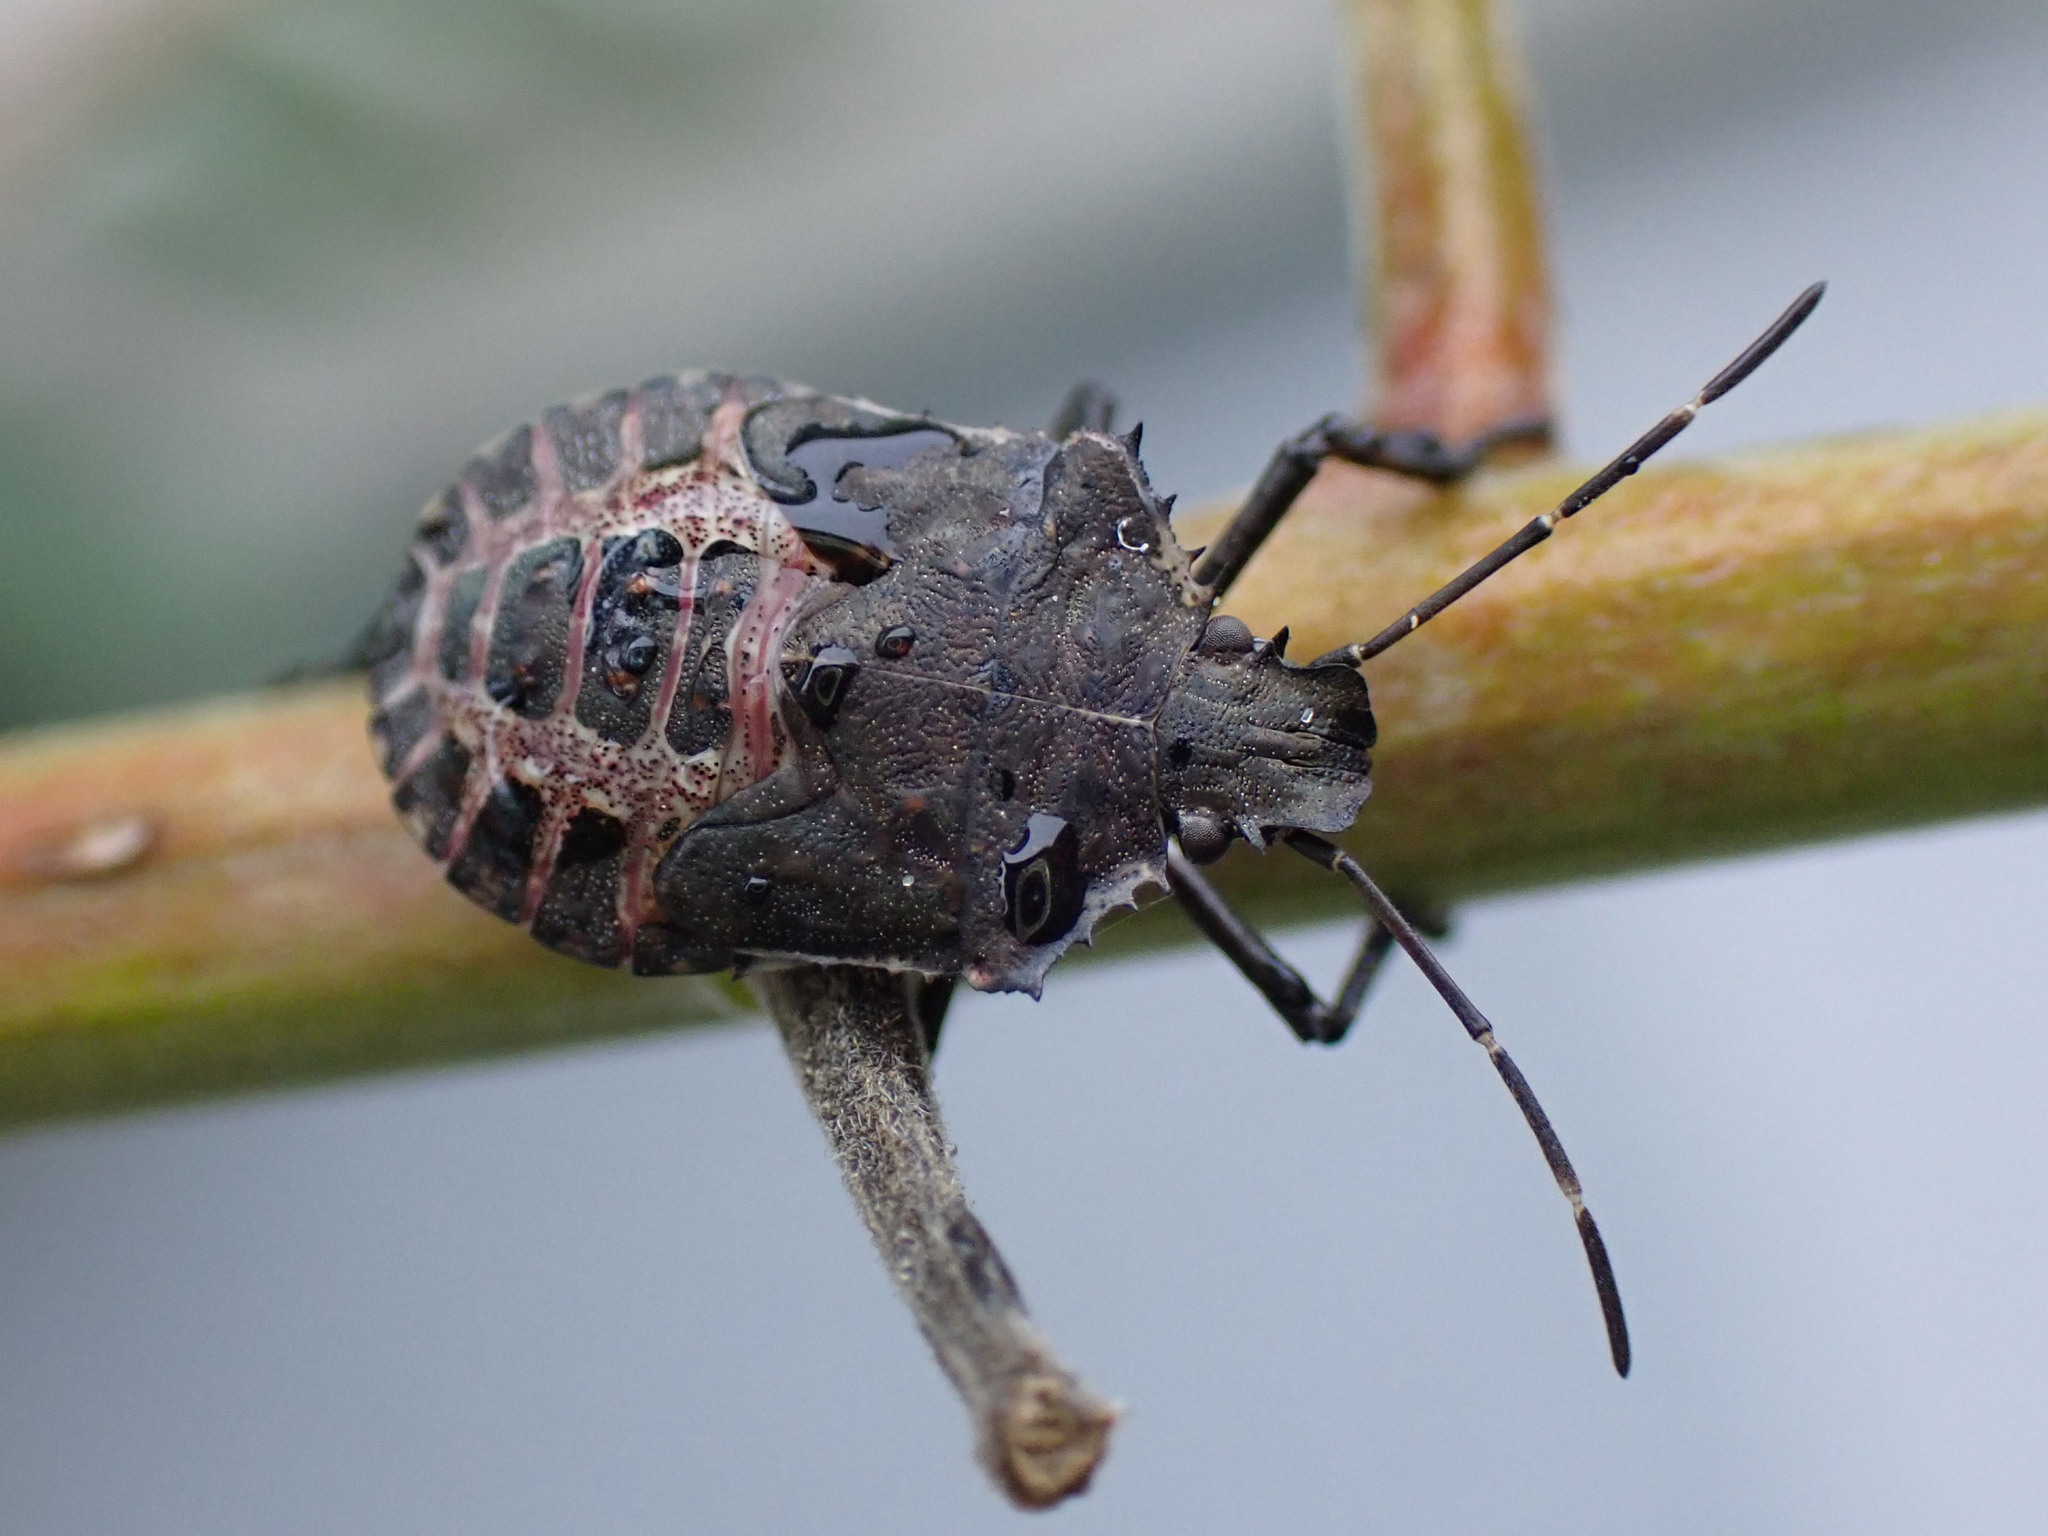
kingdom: Animalia
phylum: Arthropoda
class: Insecta
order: Hemiptera
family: Pentatomidae
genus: Halyomorpha
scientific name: Halyomorpha halys
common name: Brown marmorated stink bug
